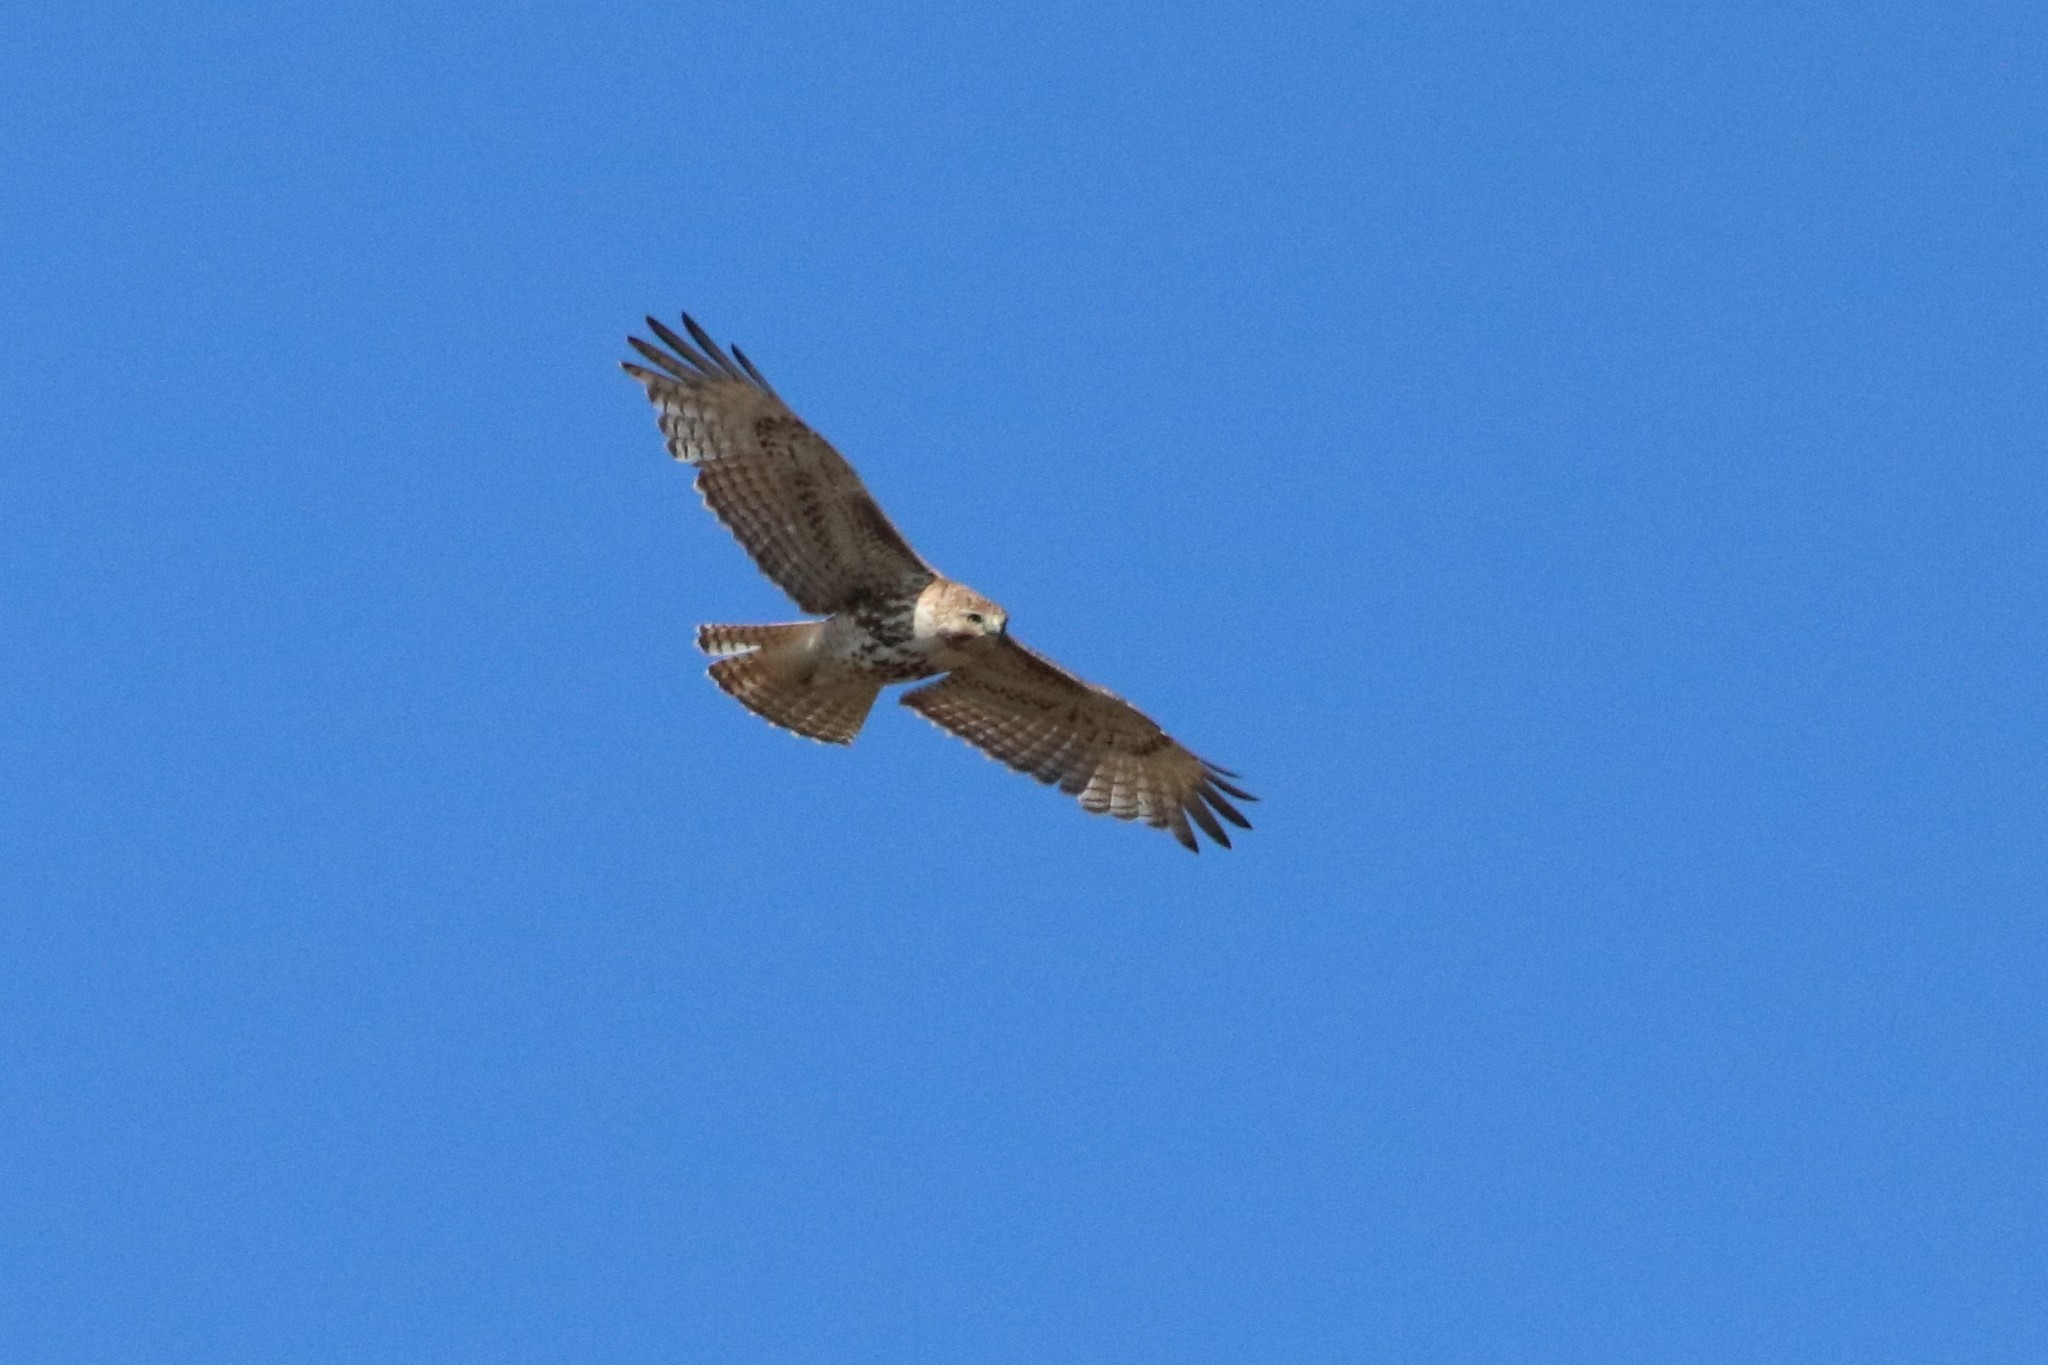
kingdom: Animalia
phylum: Chordata
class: Aves
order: Accipitriformes
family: Accipitridae
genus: Buteo
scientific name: Buteo jamaicensis
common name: Red-tailed hawk
